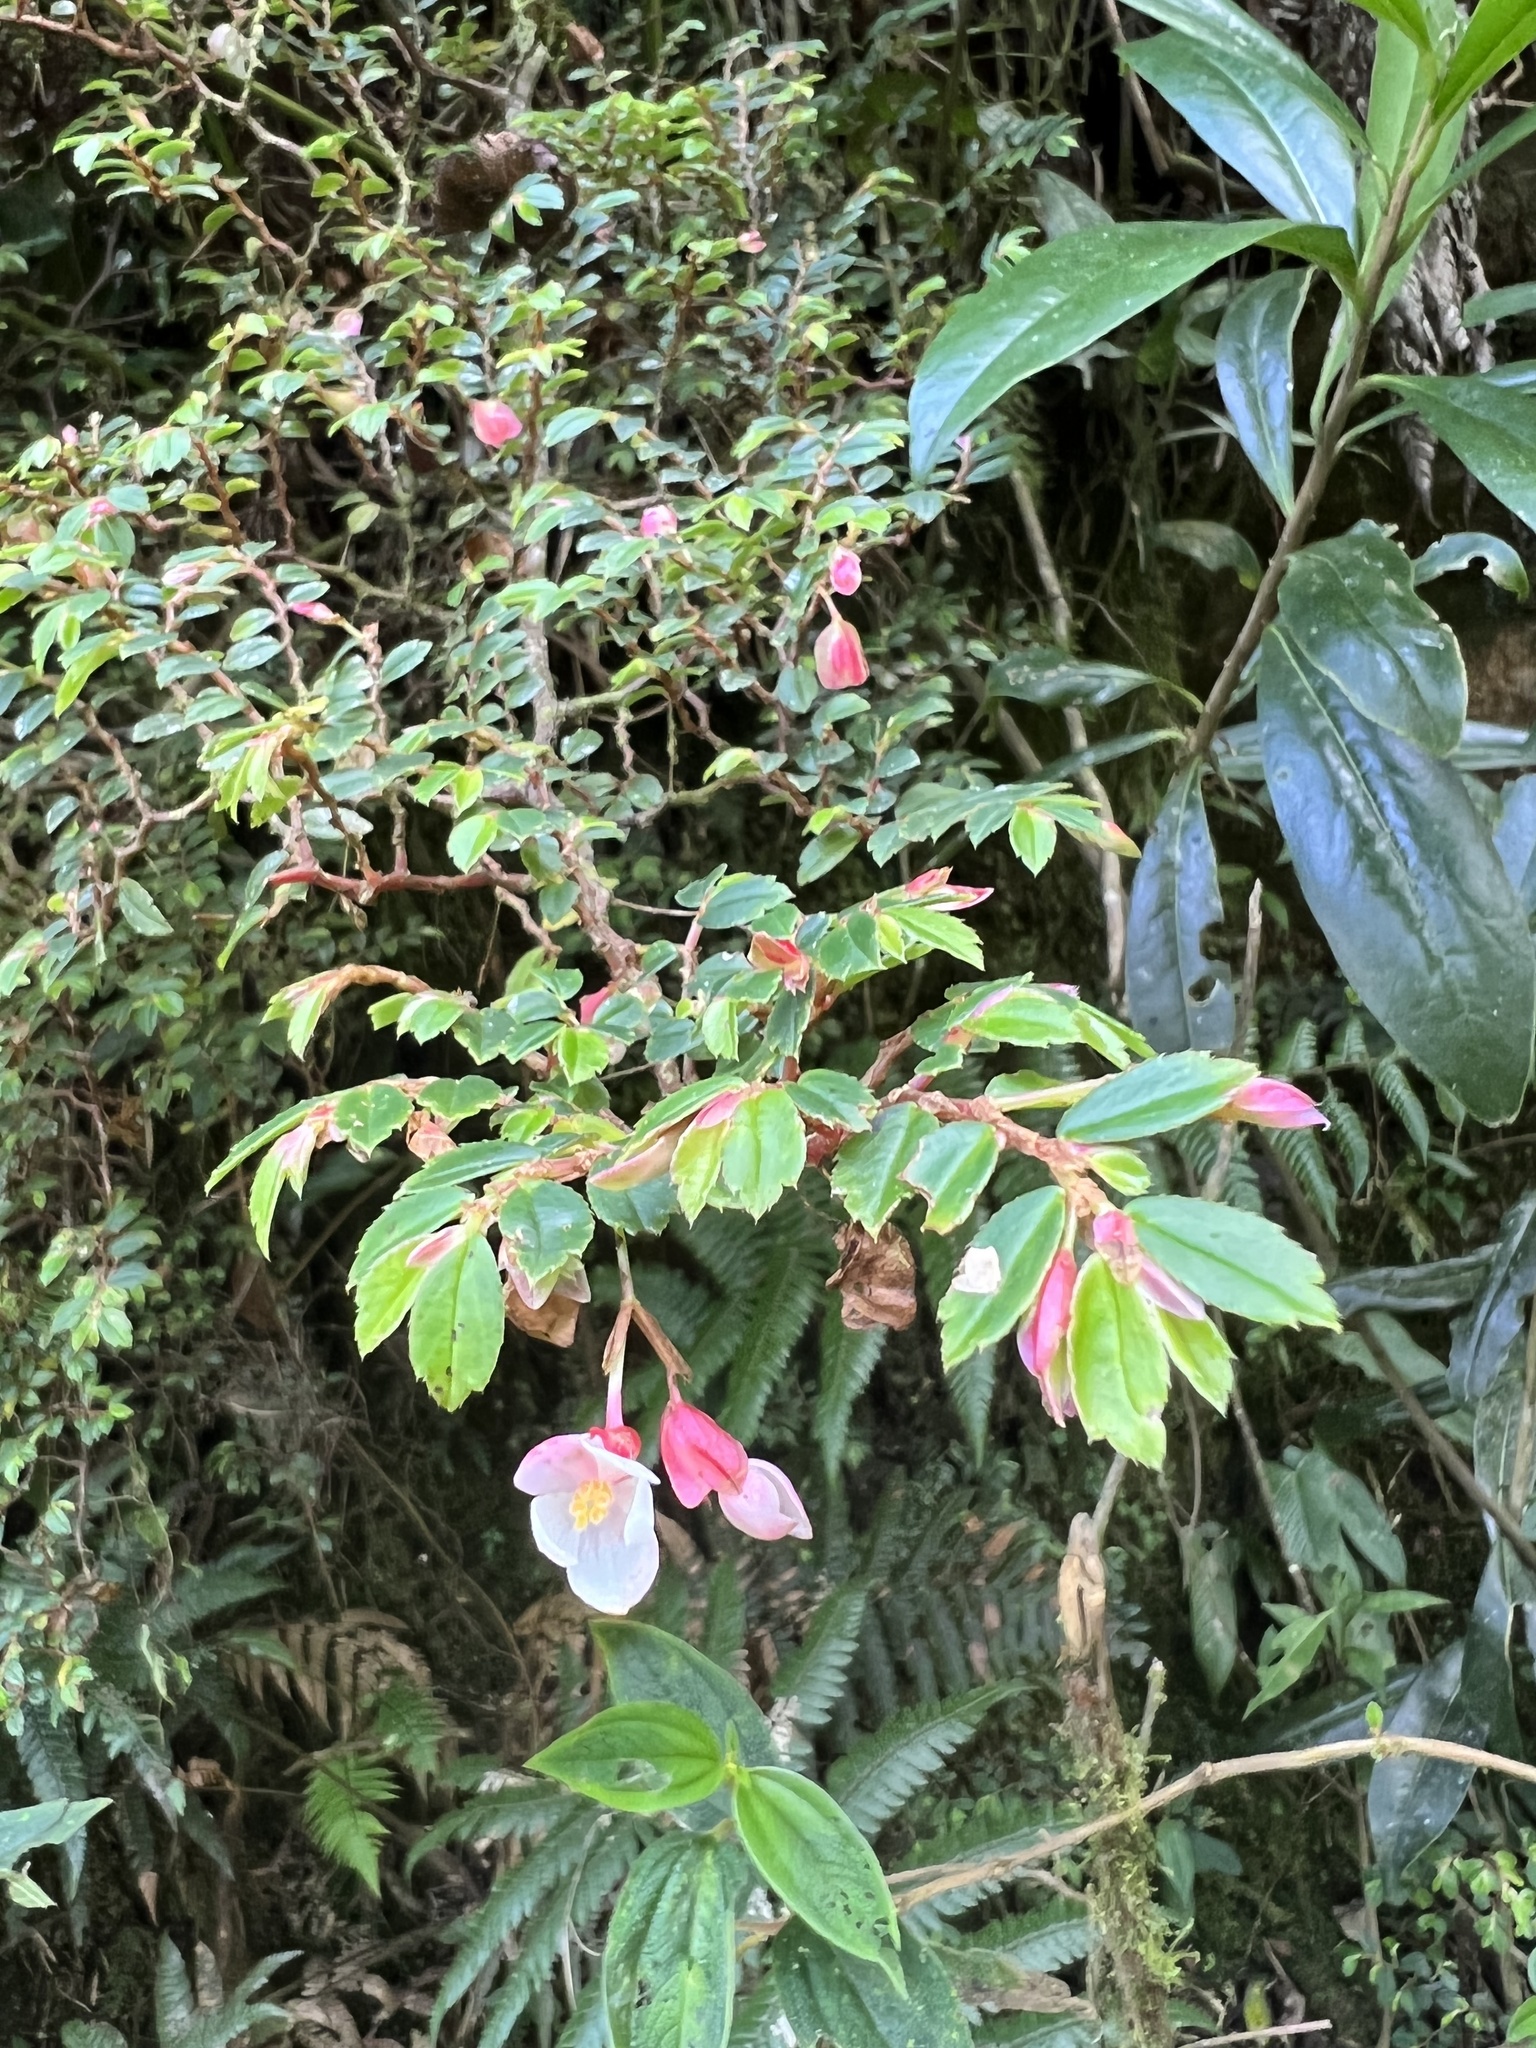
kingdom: Plantae
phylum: Tracheophyta
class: Magnoliopsida
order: Cucurbitales
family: Begoniaceae
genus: Begonia
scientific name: Begonia foliosa
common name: Fern begonia
